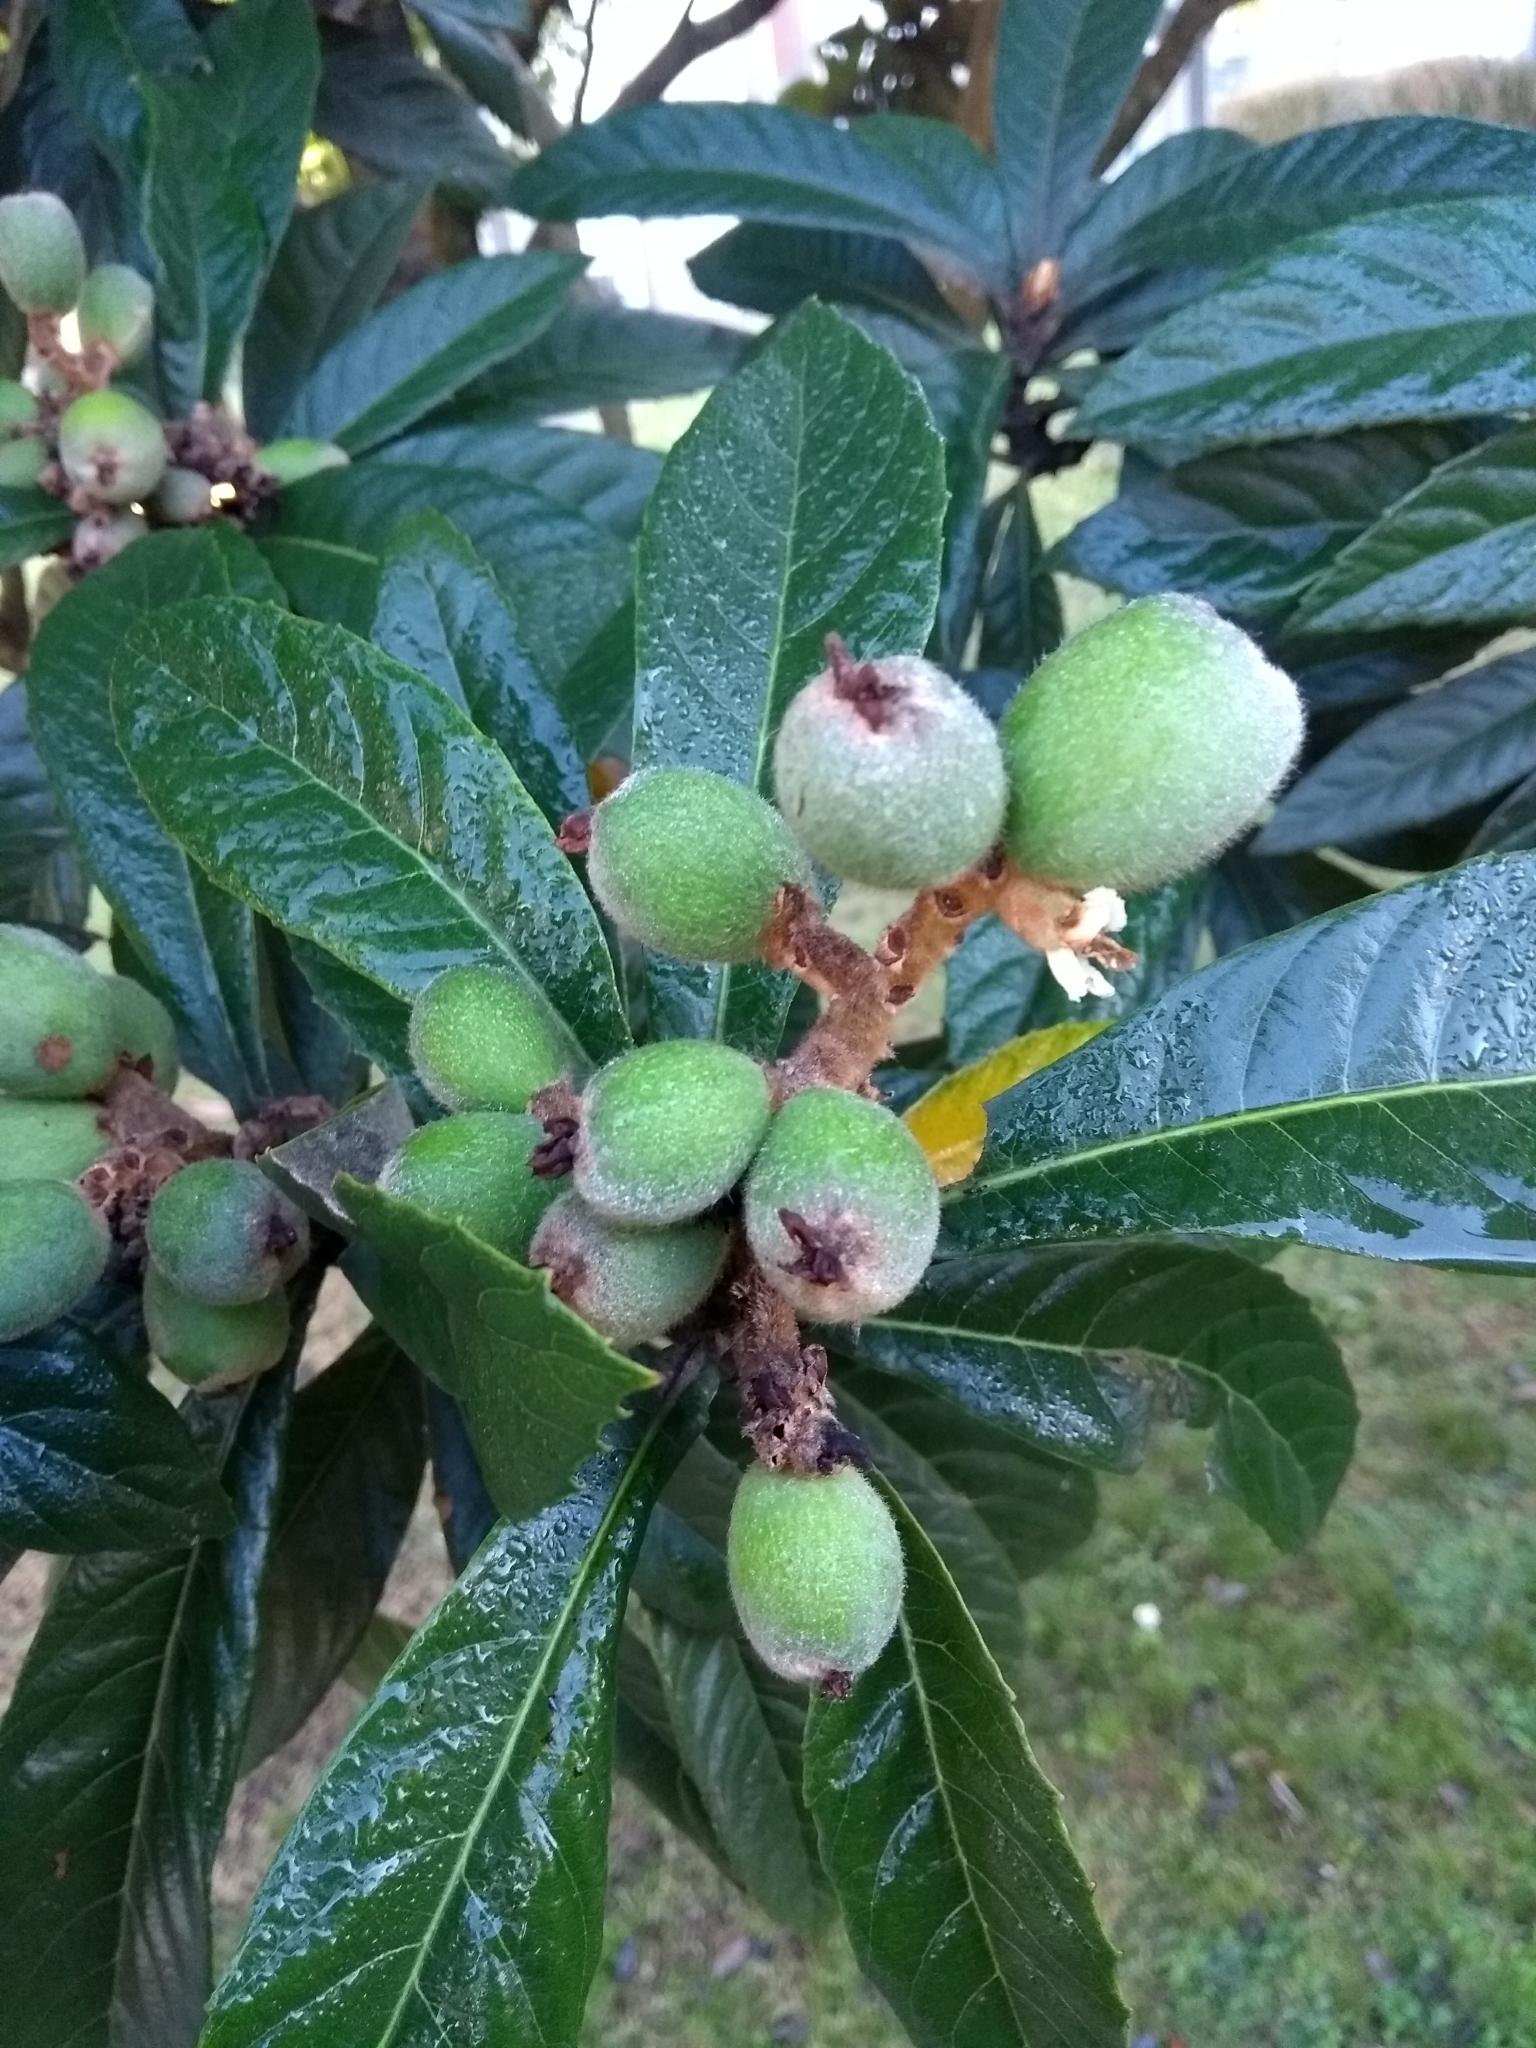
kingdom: Plantae
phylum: Tracheophyta
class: Magnoliopsida
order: Rosales
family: Rosaceae
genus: Rhaphiolepis
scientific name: Rhaphiolepis bibas
